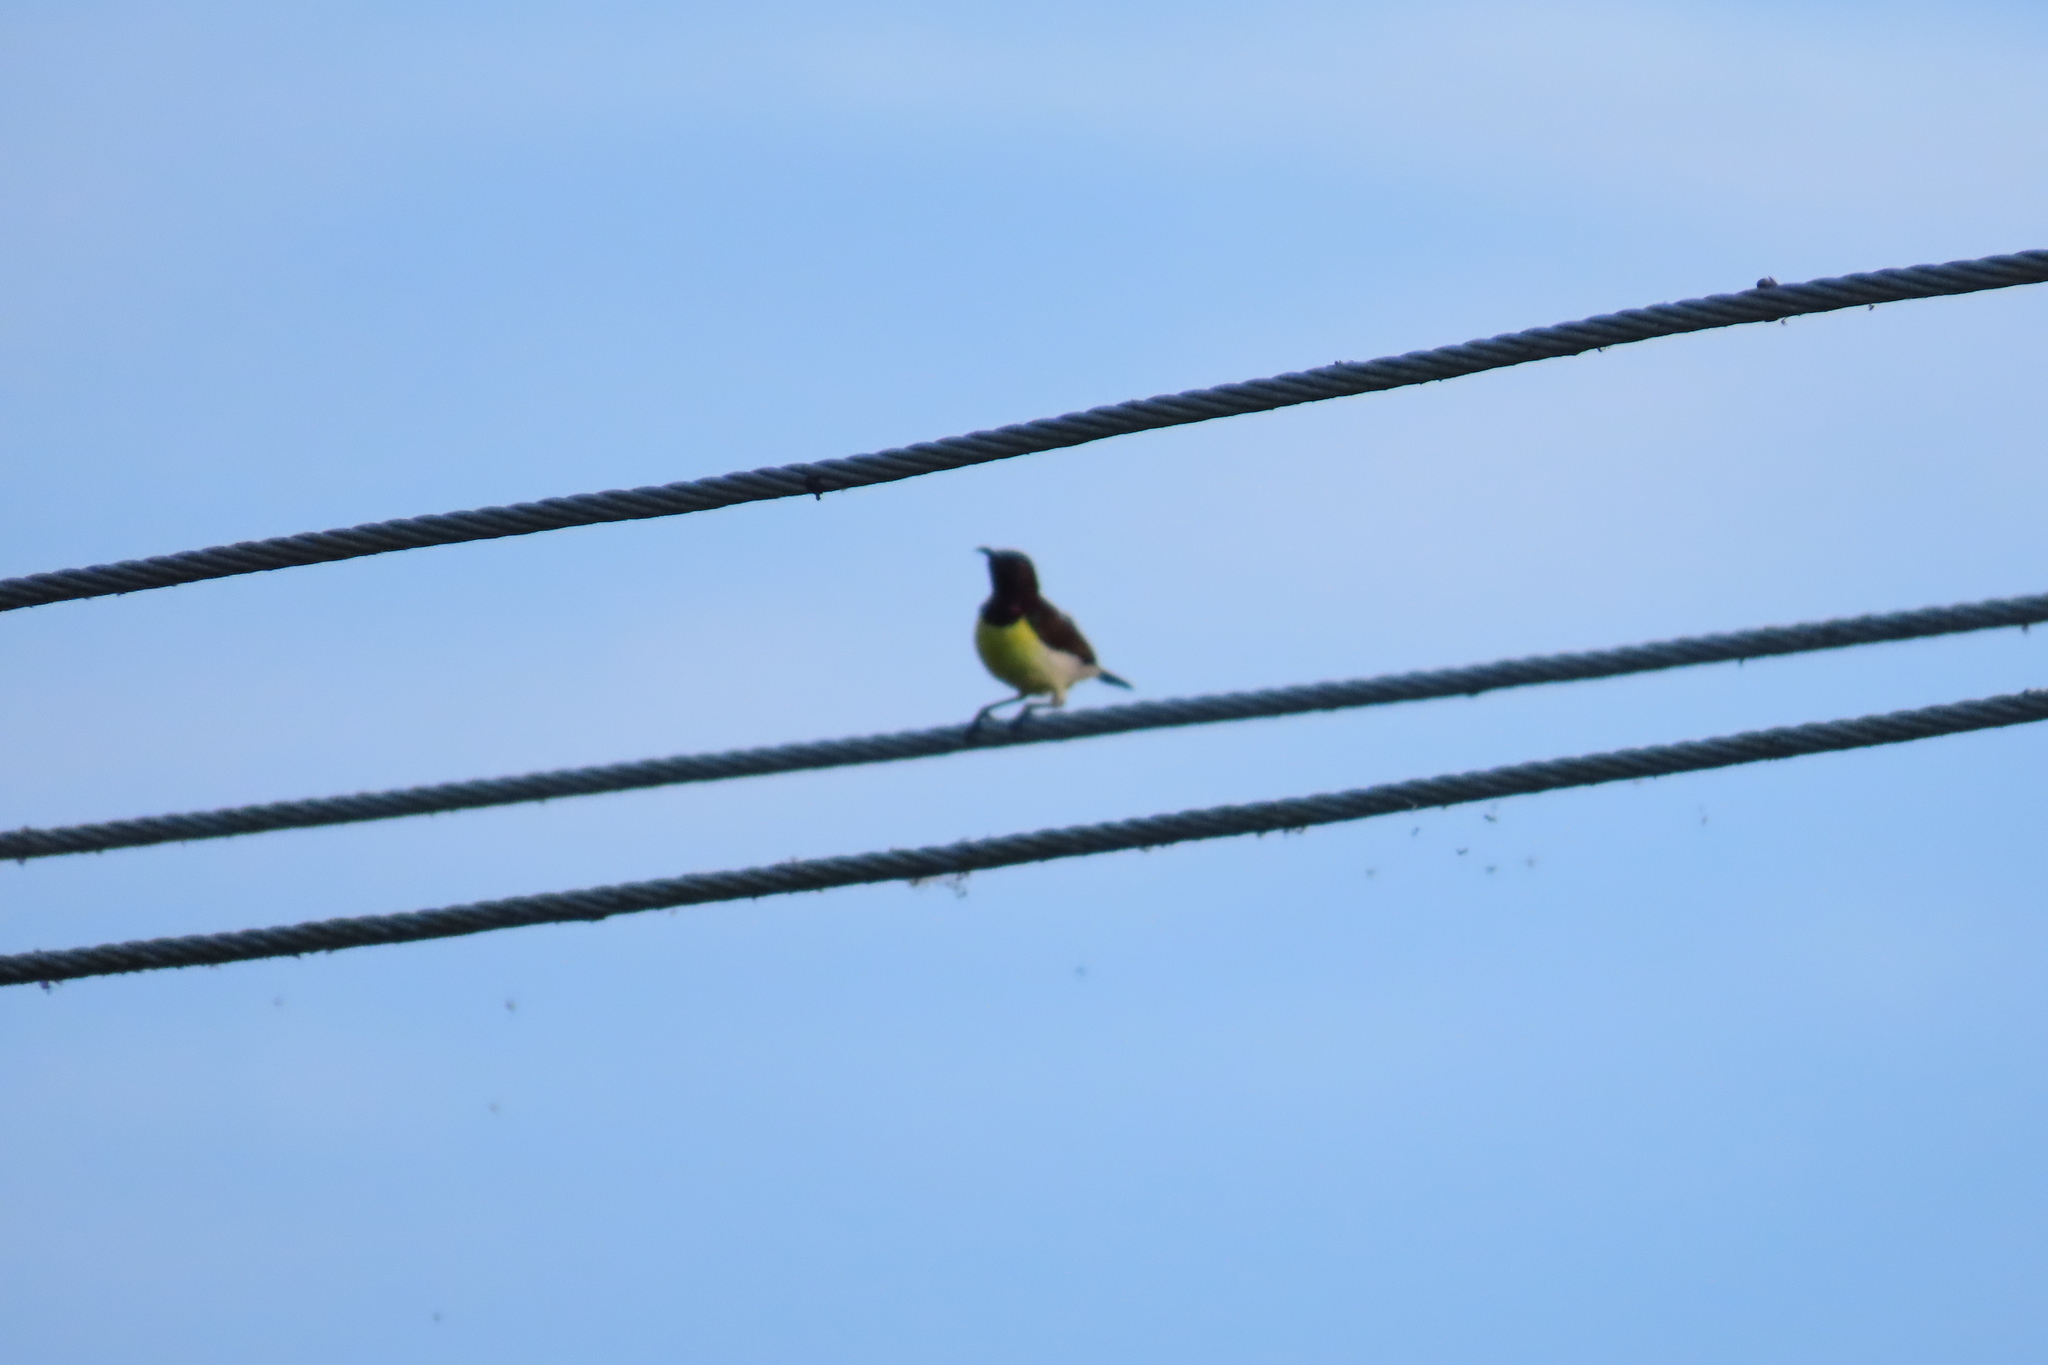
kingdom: Animalia
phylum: Chordata
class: Aves
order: Passeriformes
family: Nectariniidae
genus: Leptocoma
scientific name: Leptocoma zeylonica
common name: Purple-rumped sunbird
